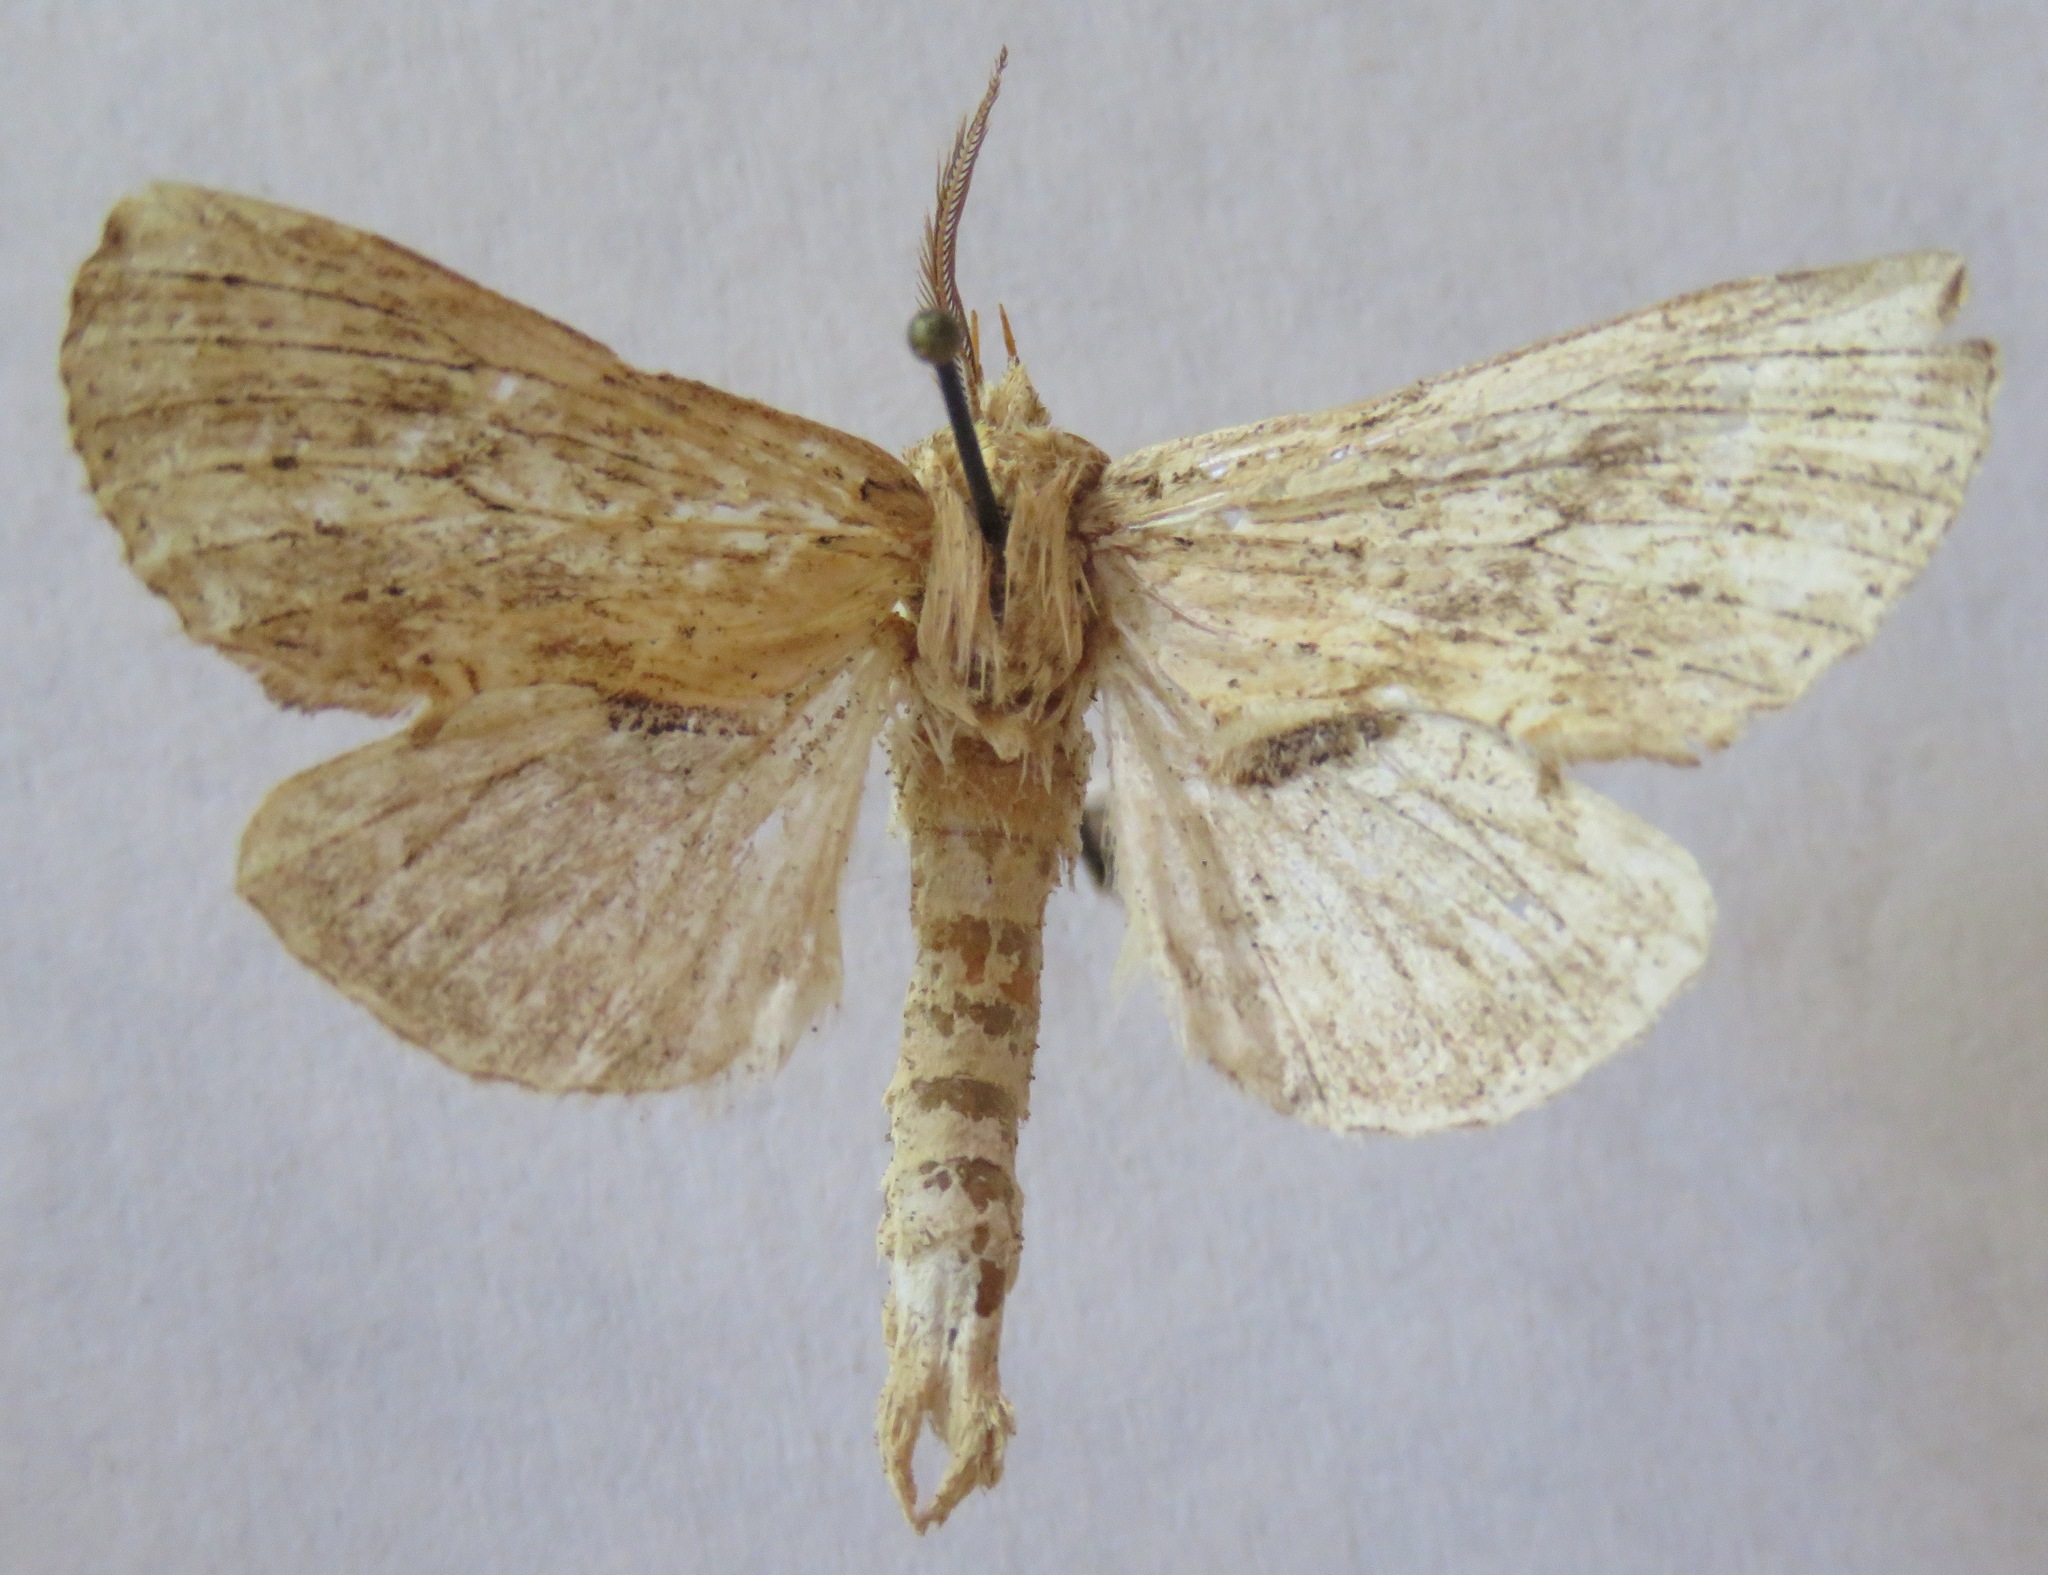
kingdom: Animalia
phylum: Arthropoda
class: Insecta
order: Lepidoptera
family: Notodontidae
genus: Pterostoma
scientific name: Pterostoma palpina
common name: Pale prominent
